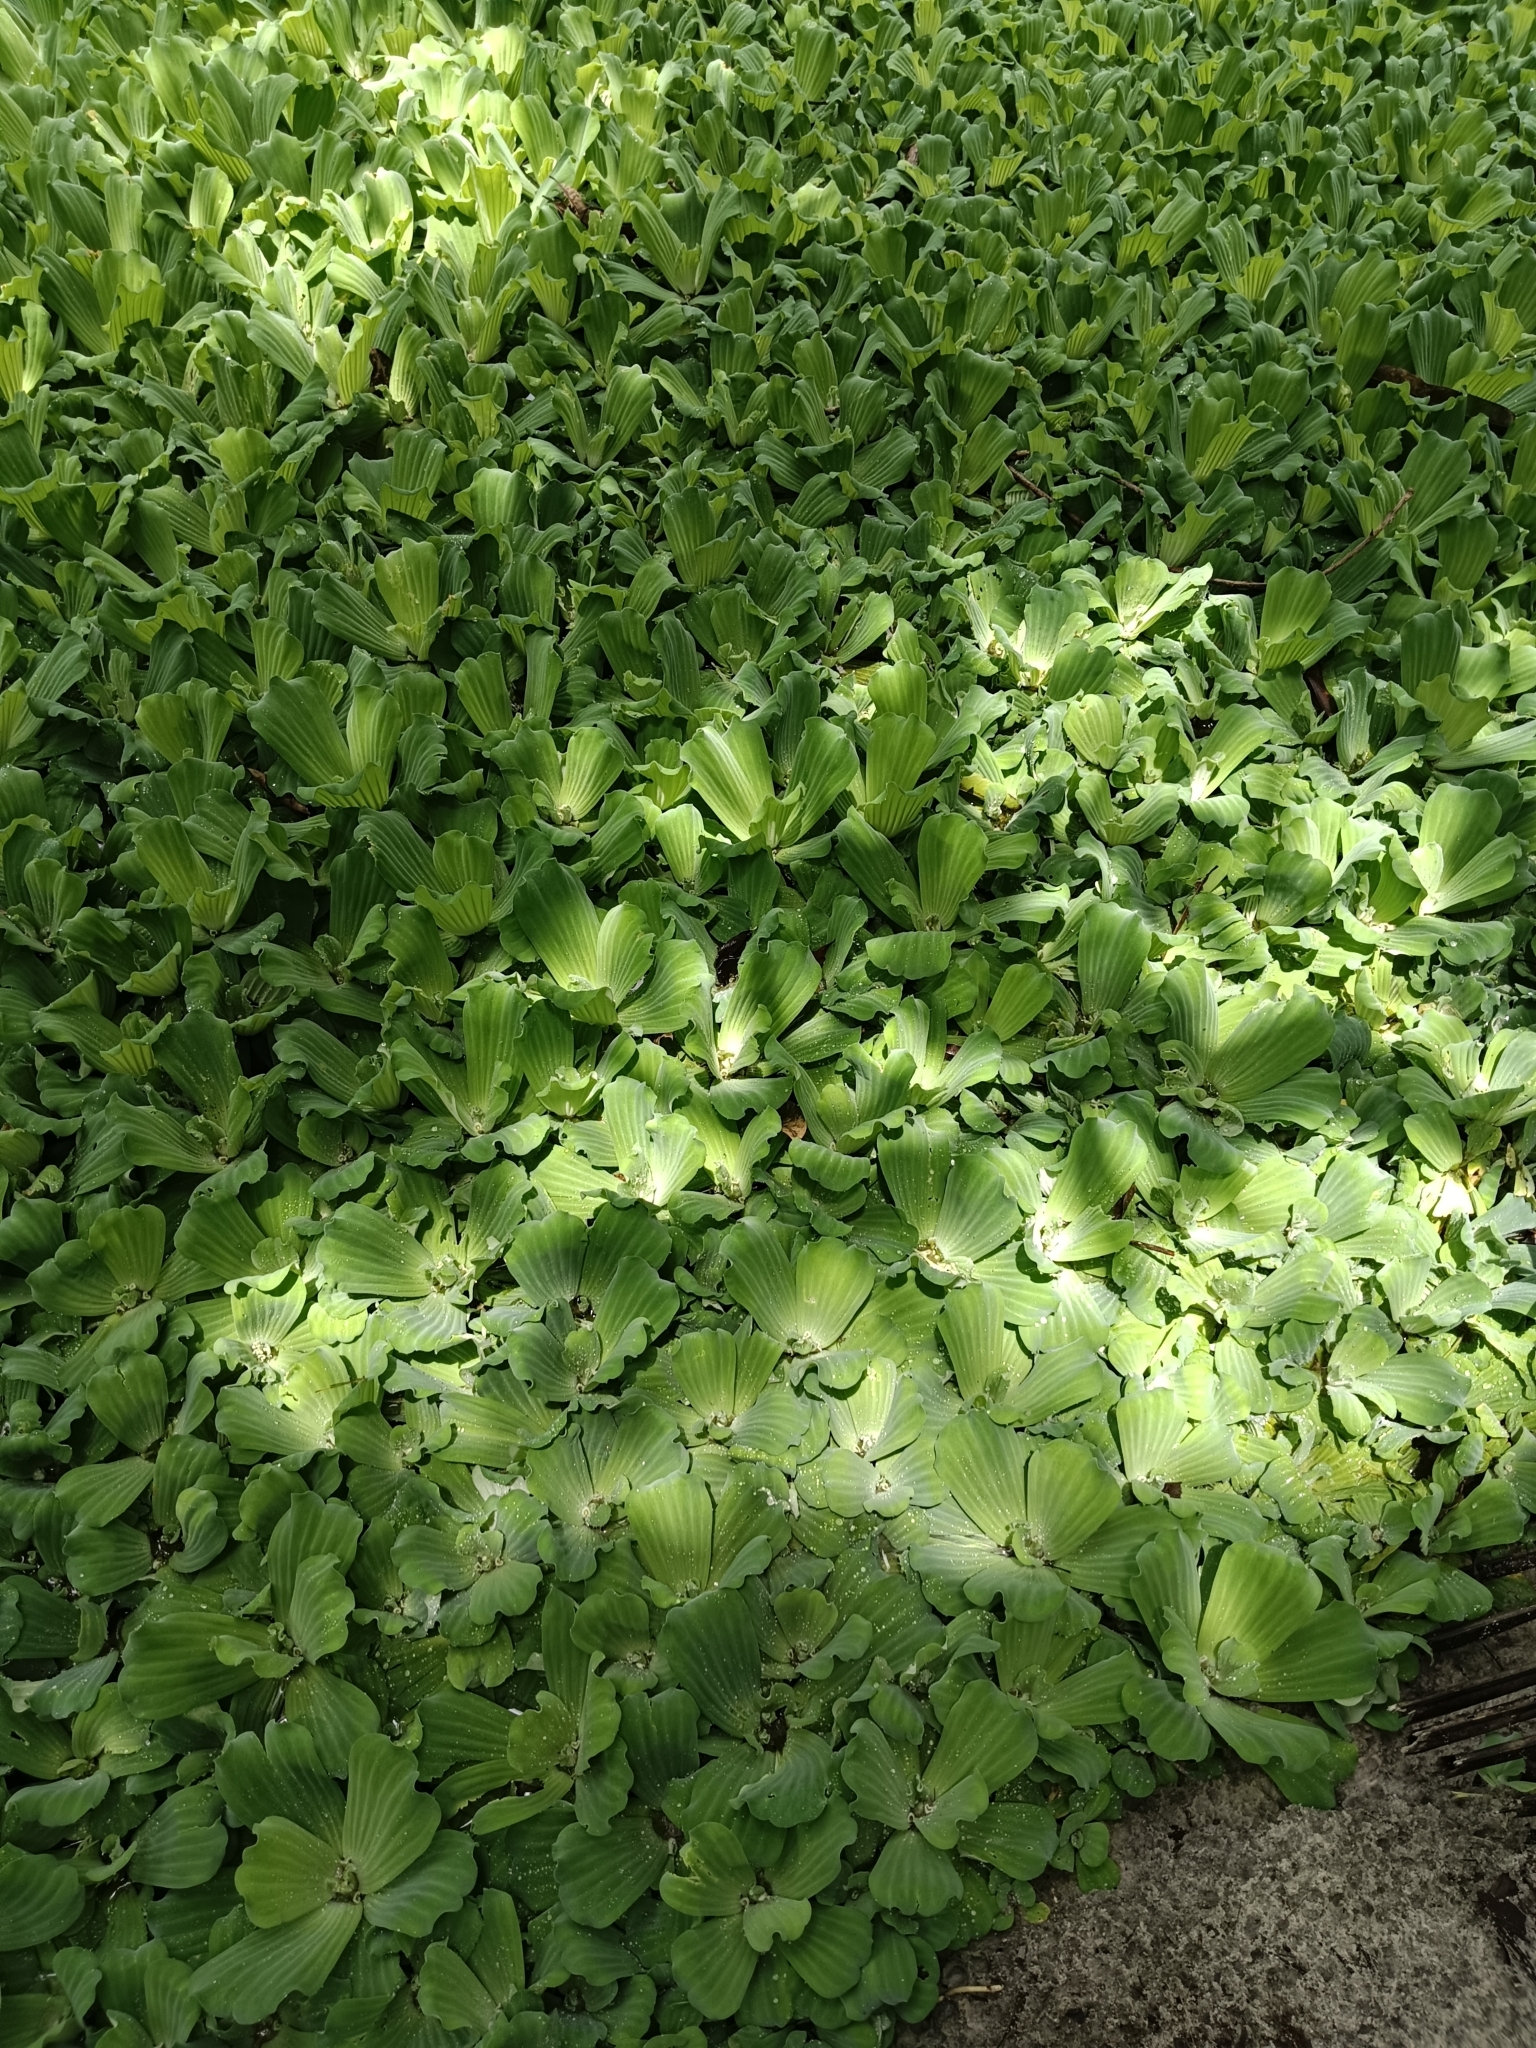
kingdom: Plantae
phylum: Tracheophyta
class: Liliopsida
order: Alismatales
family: Araceae
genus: Pistia
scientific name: Pistia stratiotes
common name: Water lettuce
